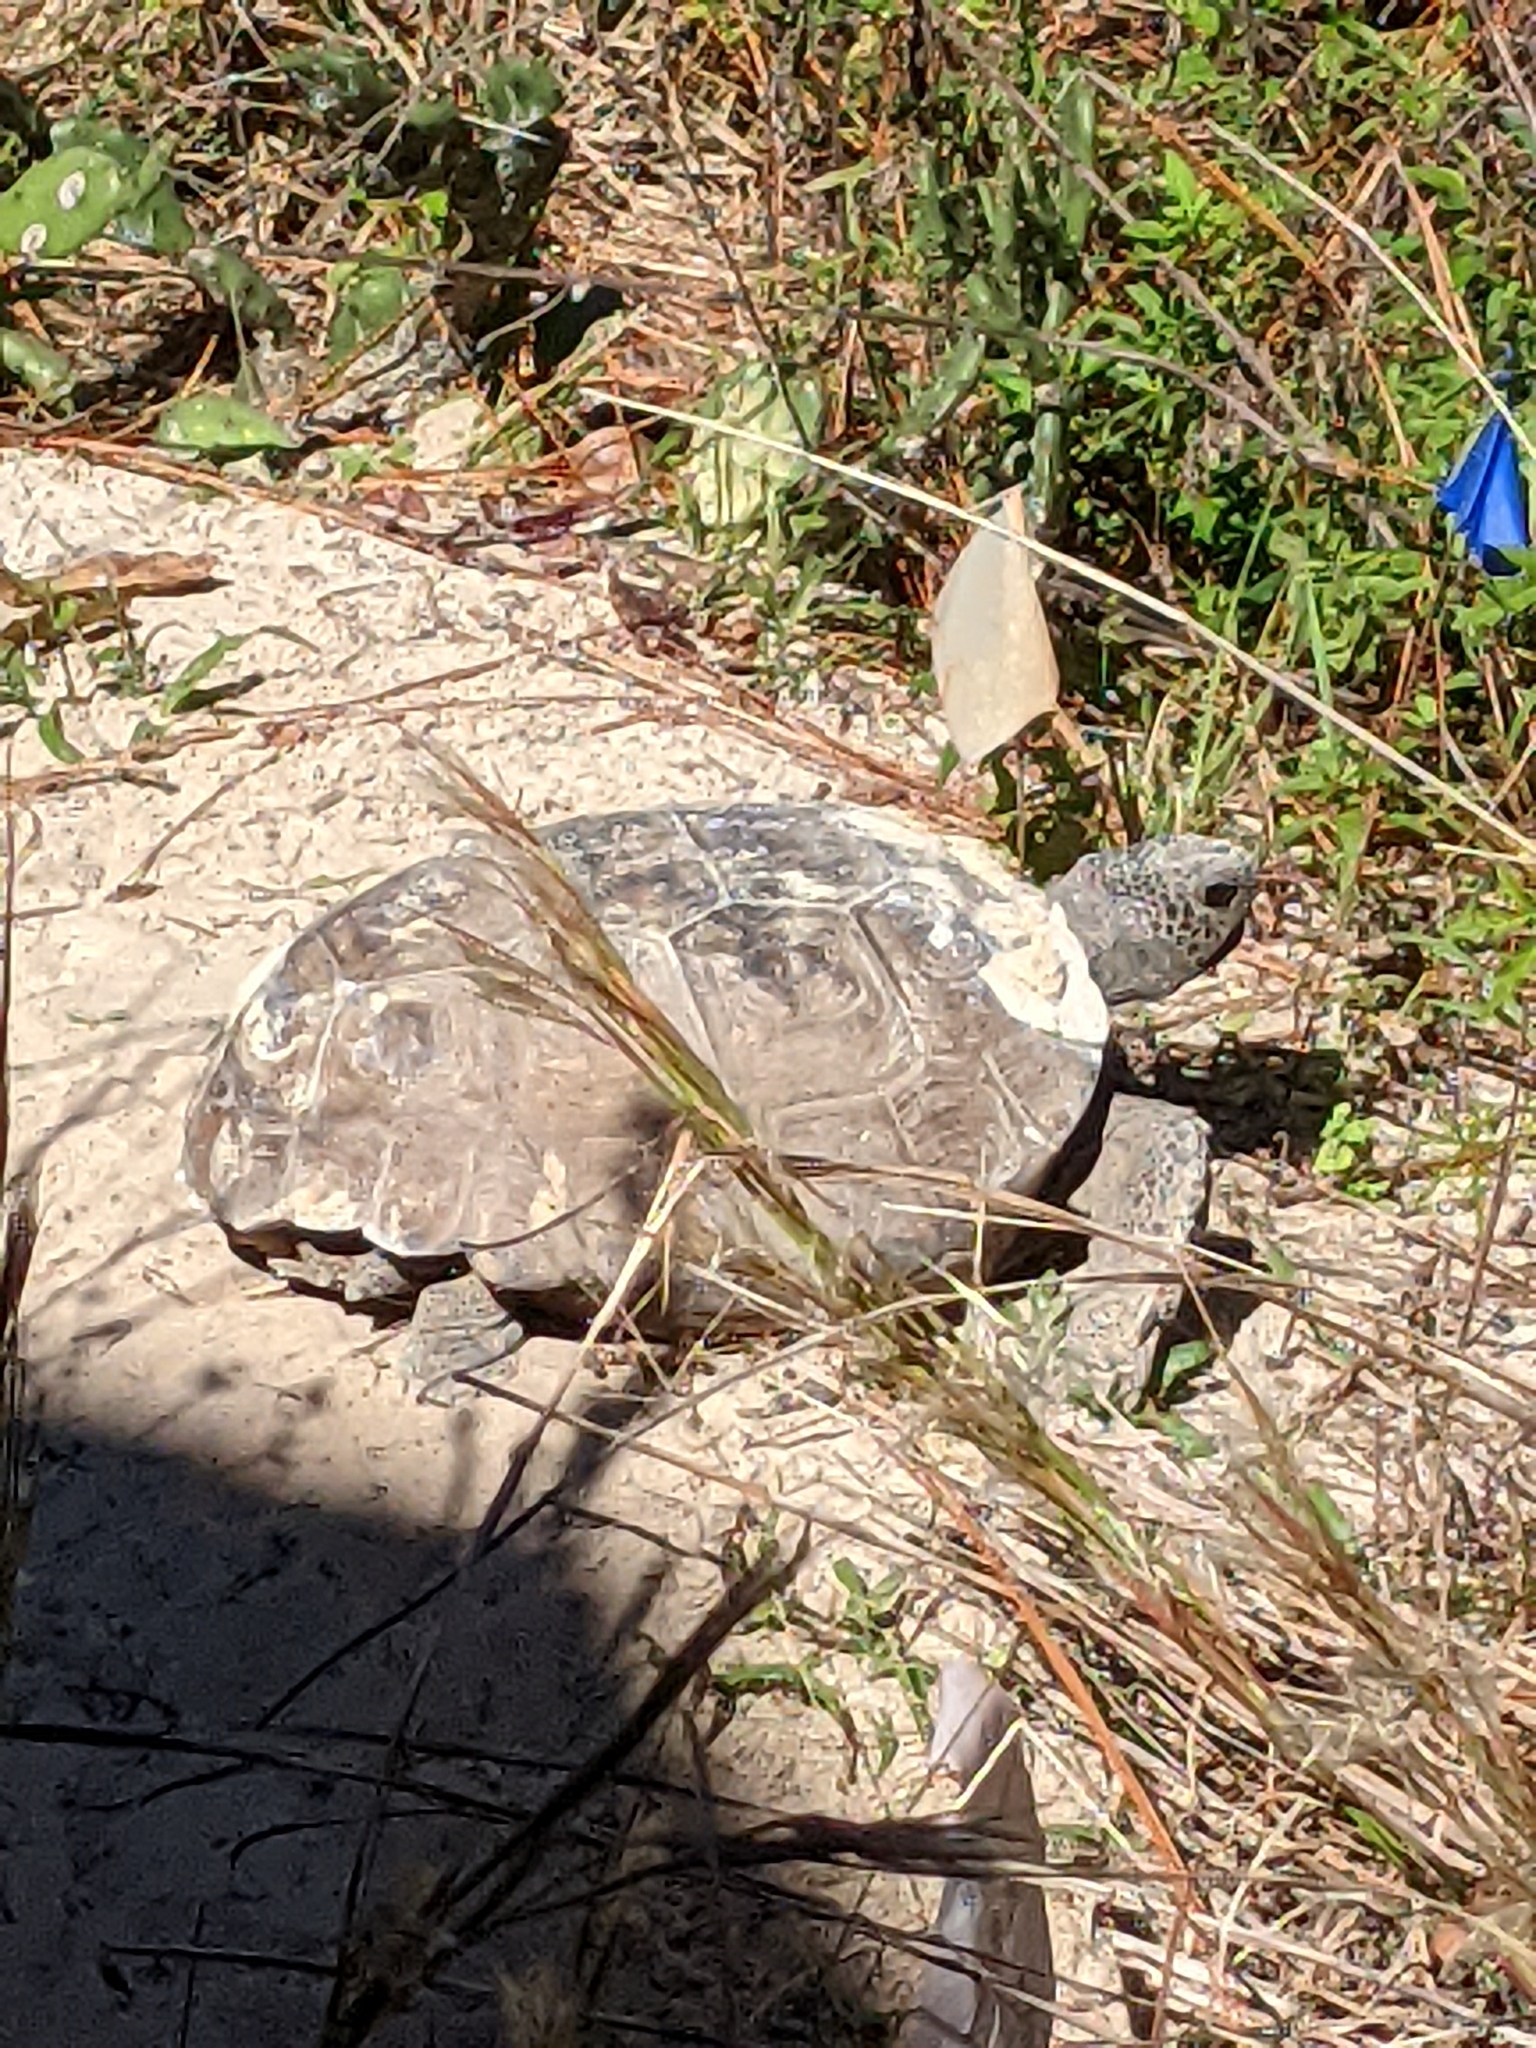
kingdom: Animalia
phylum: Chordata
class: Testudines
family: Testudinidae
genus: Gopherus
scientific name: Gopherus polyphemus
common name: Florida gopher tortoise
